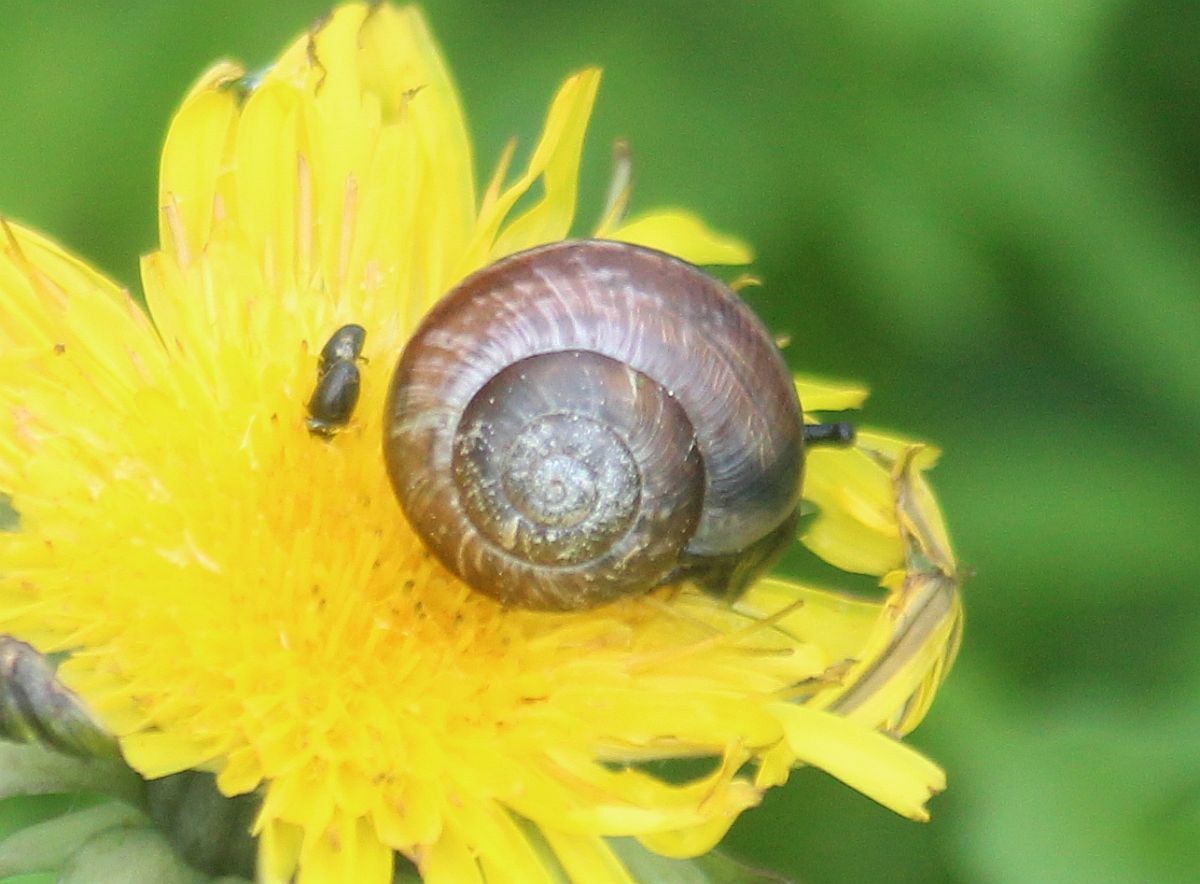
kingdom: Animalia
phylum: Mollusca
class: Gastropoda
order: Stylommatophora
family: Helicidae
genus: Arianta
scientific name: Arianta arbustorum
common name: Copse snail
